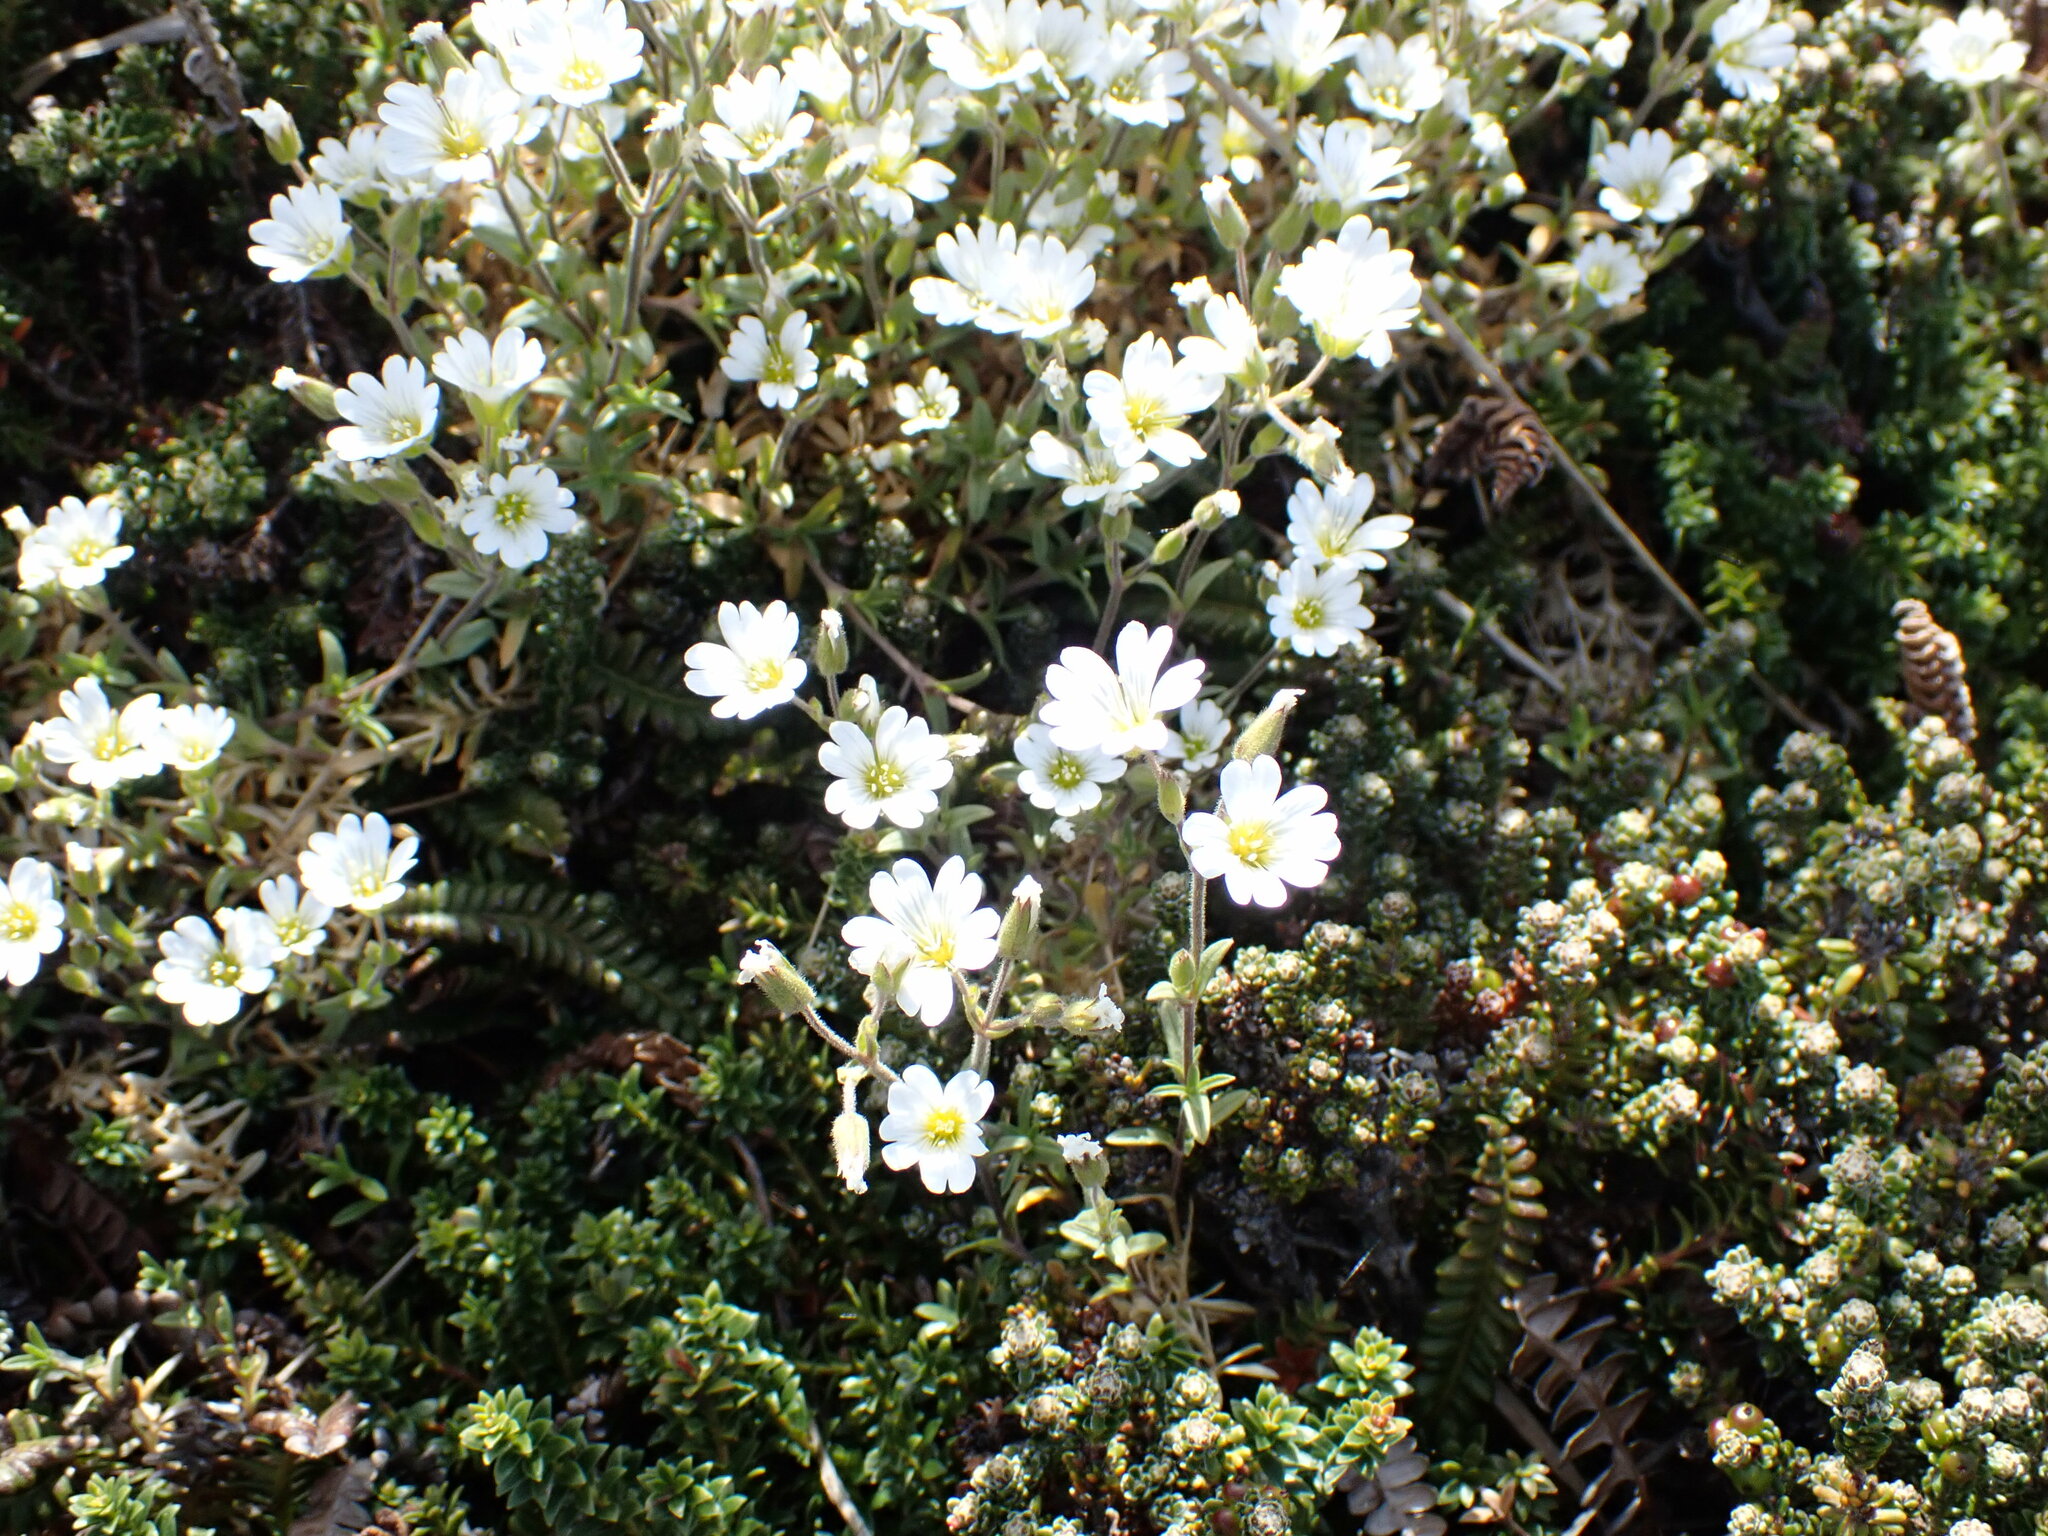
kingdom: Plantae
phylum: Tracheophyta
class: Magnoliopsida
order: Caryophyllales
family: Caryophyllaceae
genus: Cerastium
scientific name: Cerastium arvense
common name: Field mouse-ear
